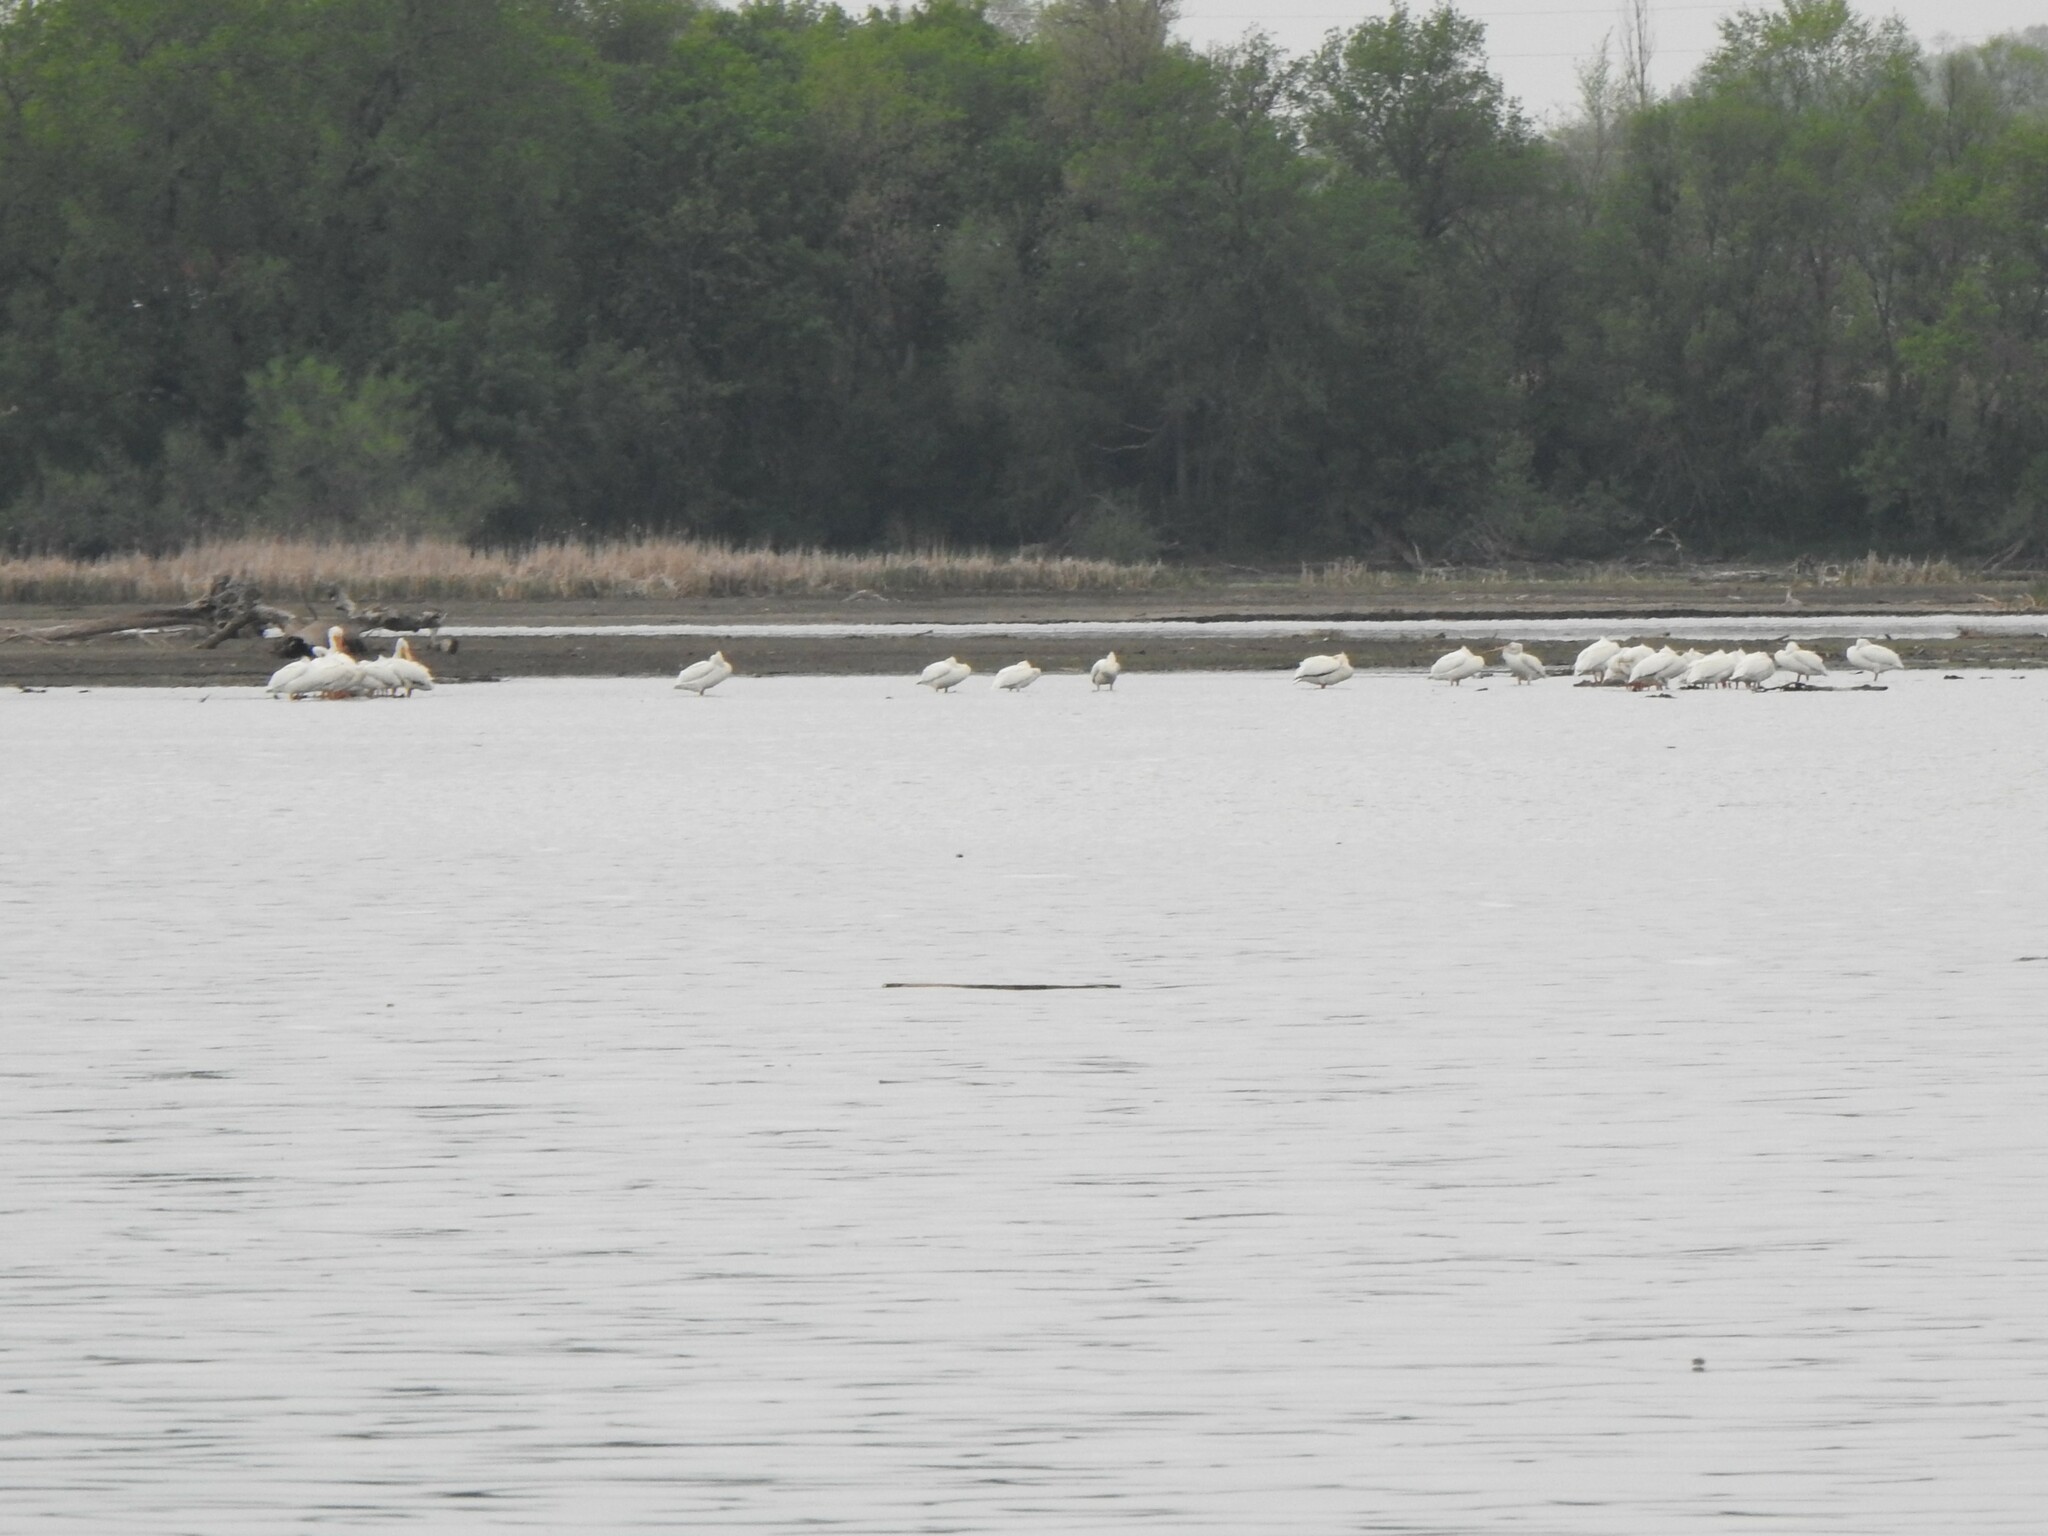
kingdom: Animalia
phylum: Chordata
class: Aves
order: Pelecaniformes
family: Pelecanidae
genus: Pelecanus
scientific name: Pelecanus erythrorhynchos
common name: American white pelican
